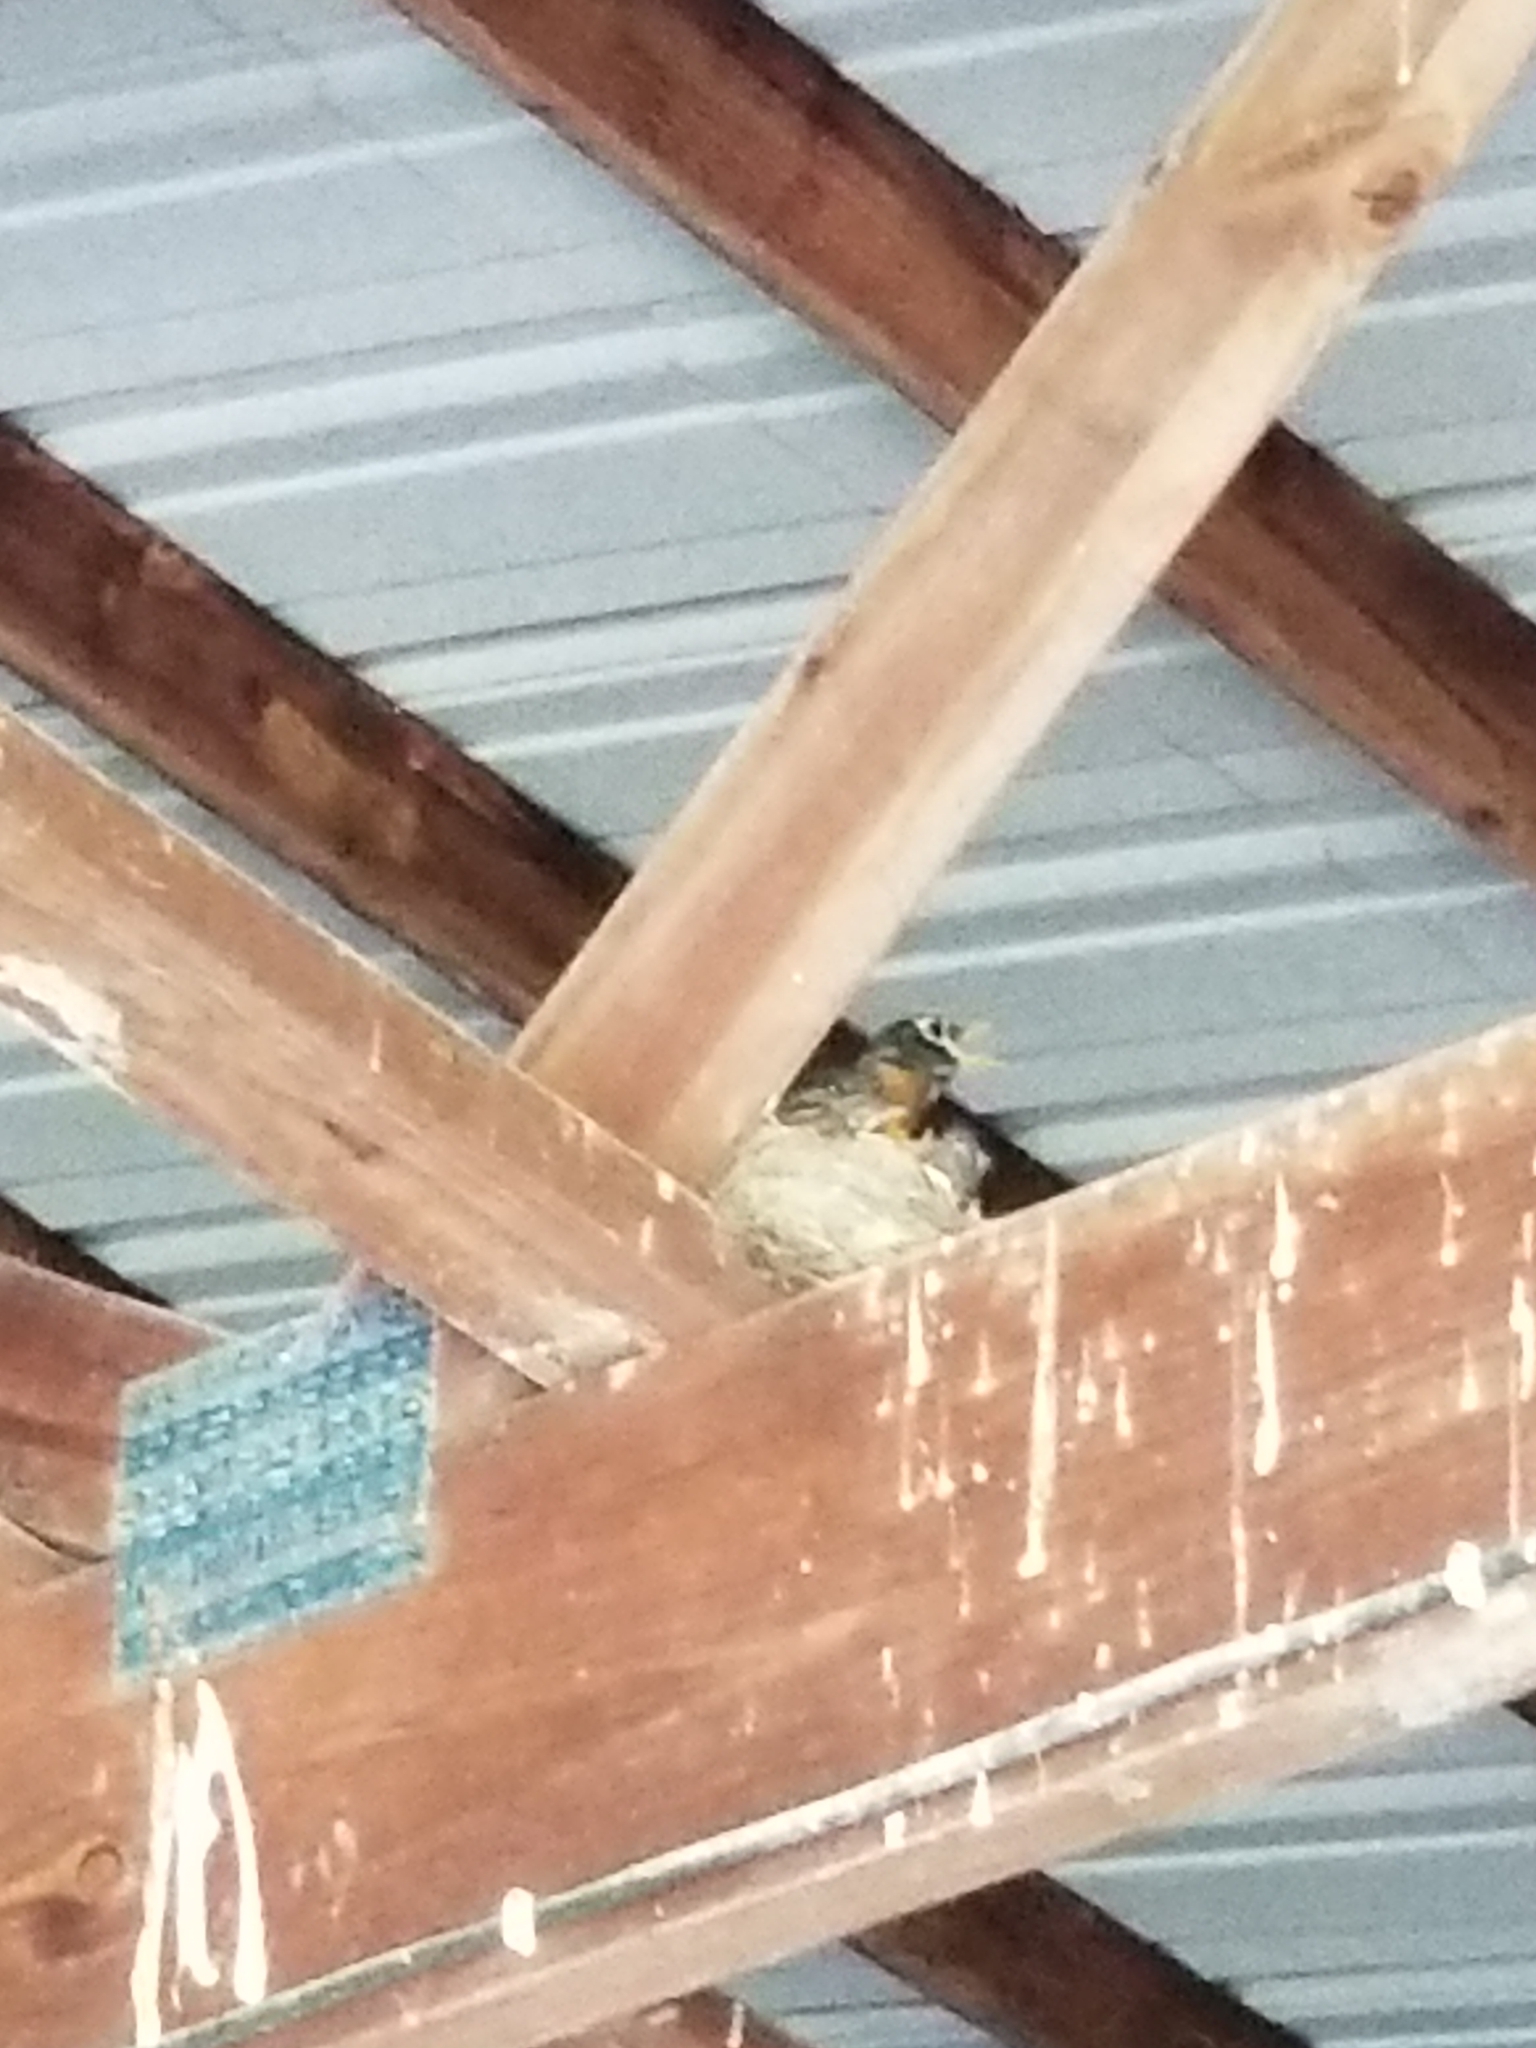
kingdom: Animalia
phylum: Chordata
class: Aves
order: Passeriformes
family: Turdidae
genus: Turdus
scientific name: Turdus migratorius
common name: American robin
